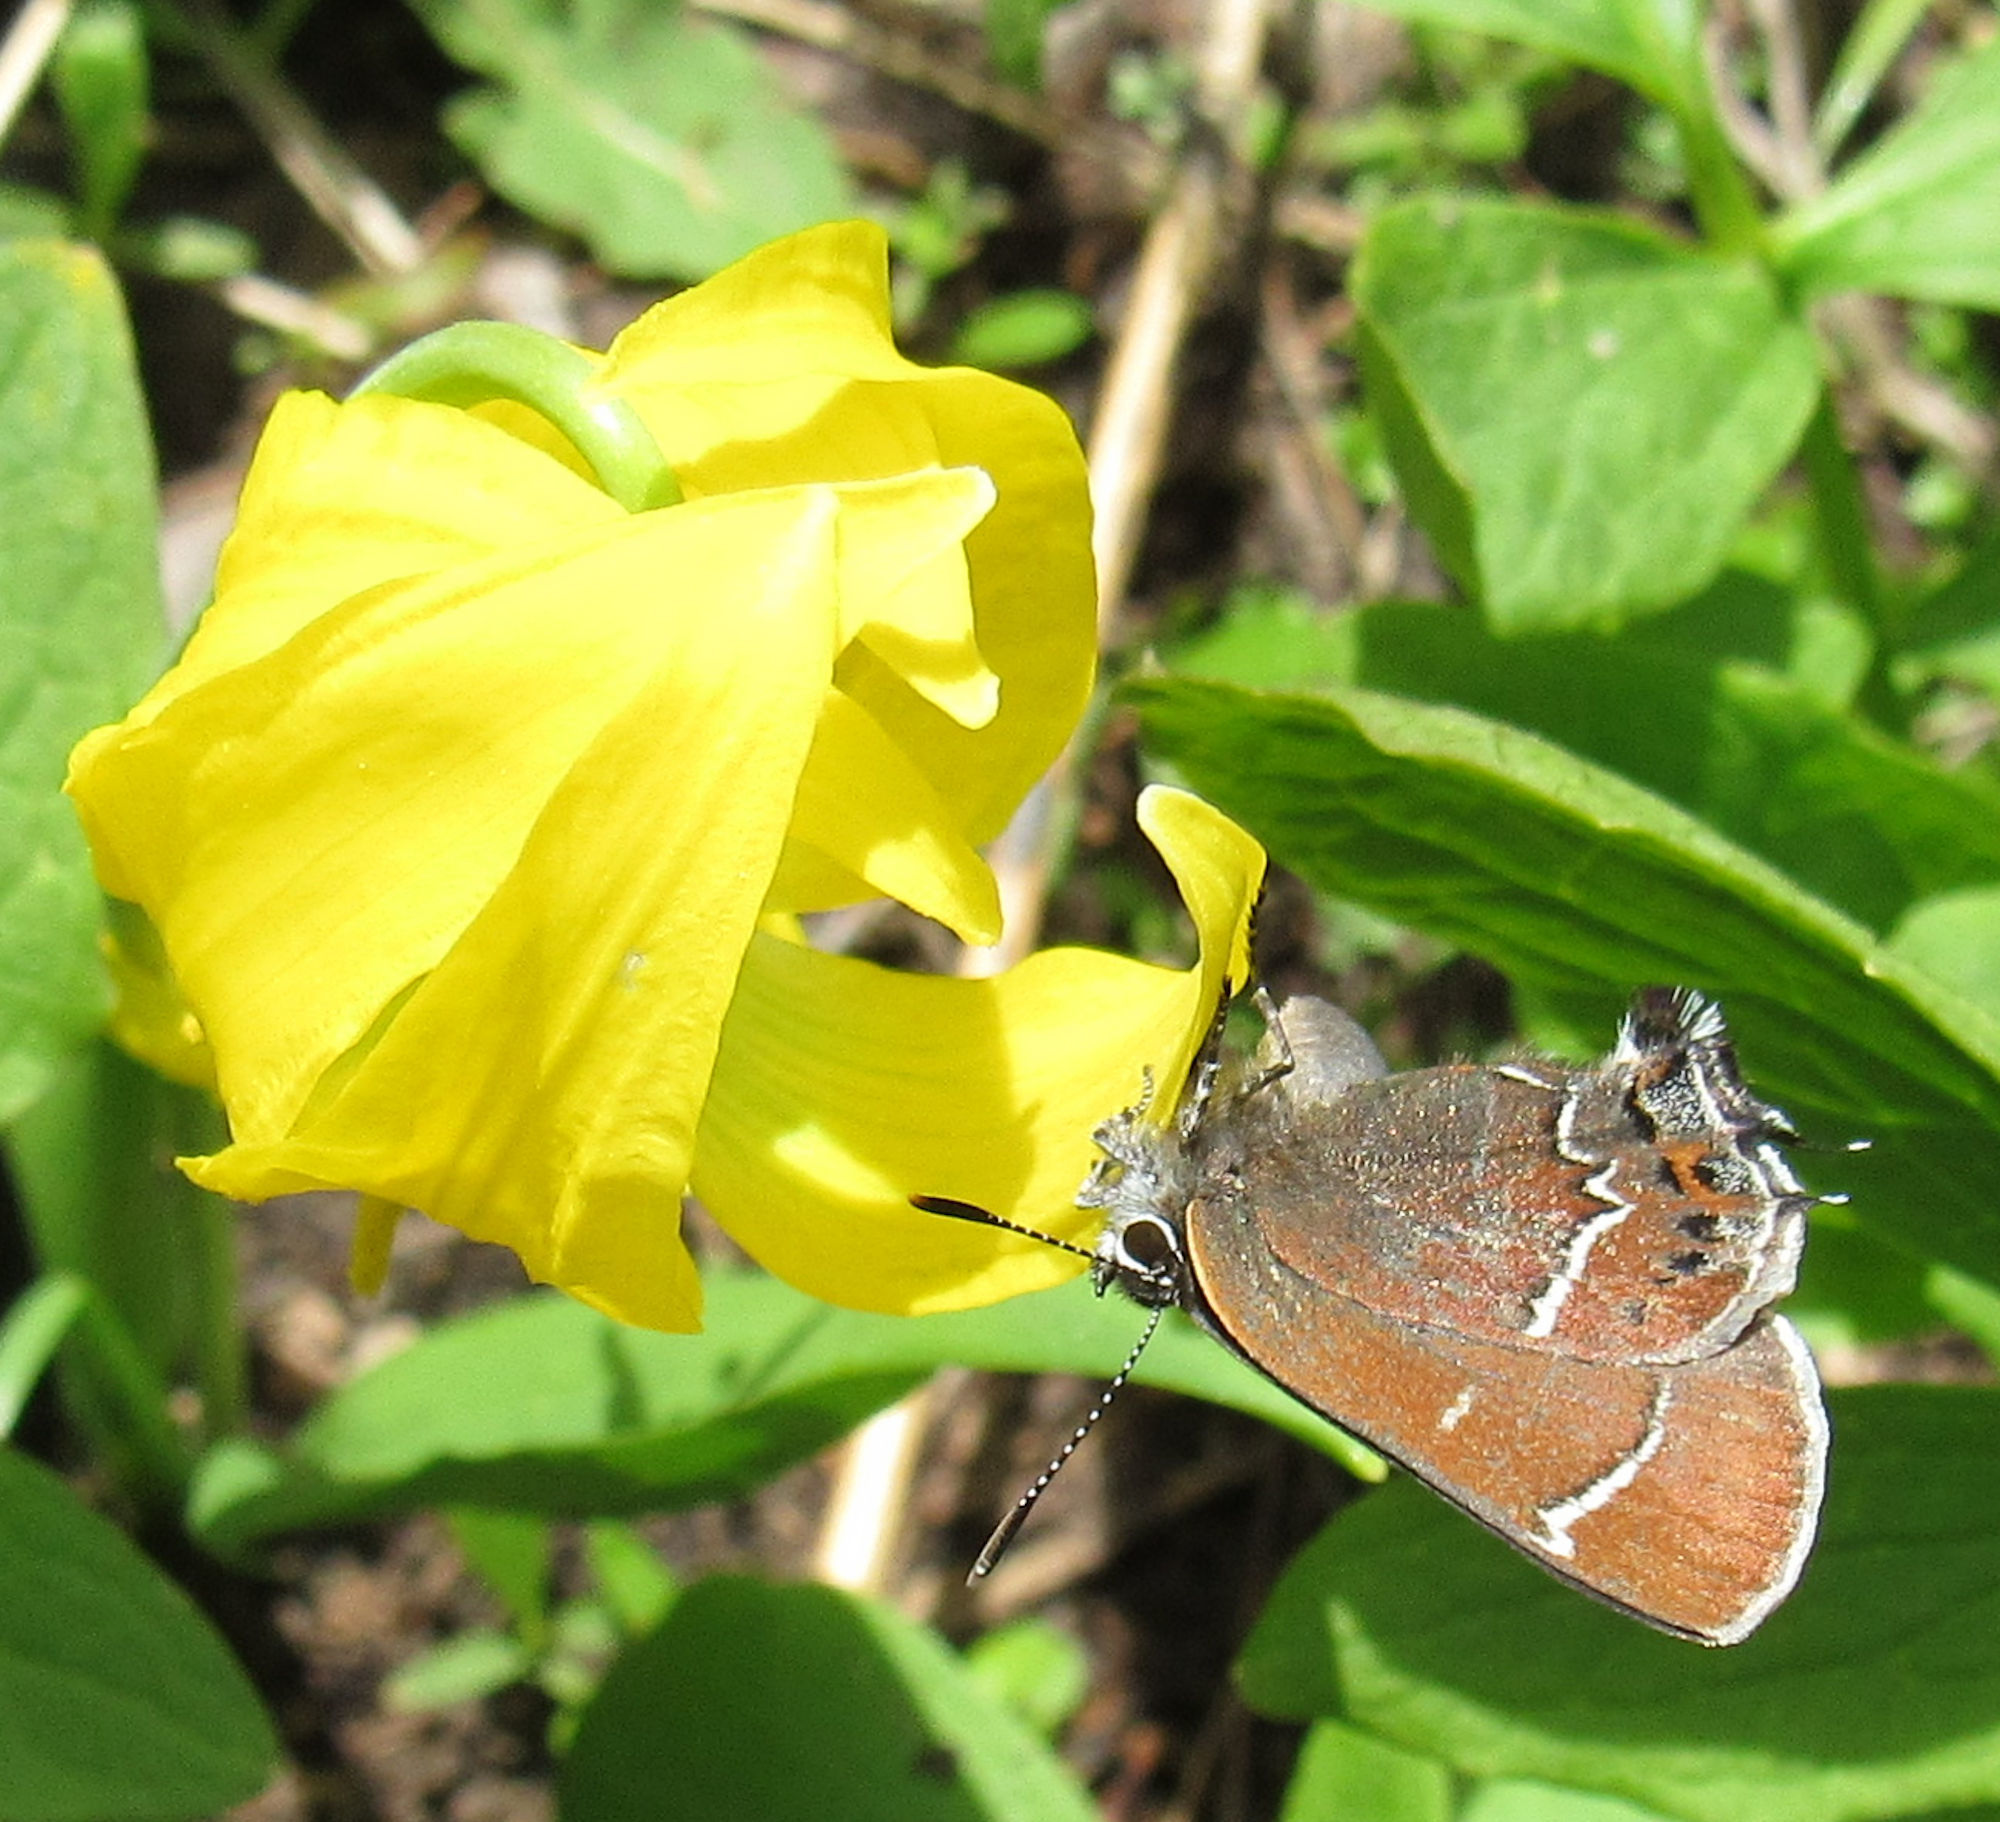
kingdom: Animalia
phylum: Arthropoda
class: Insecta
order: Lepidoptera
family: Lycaenidae
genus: Mitoura
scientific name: Mitoura spinetorum
